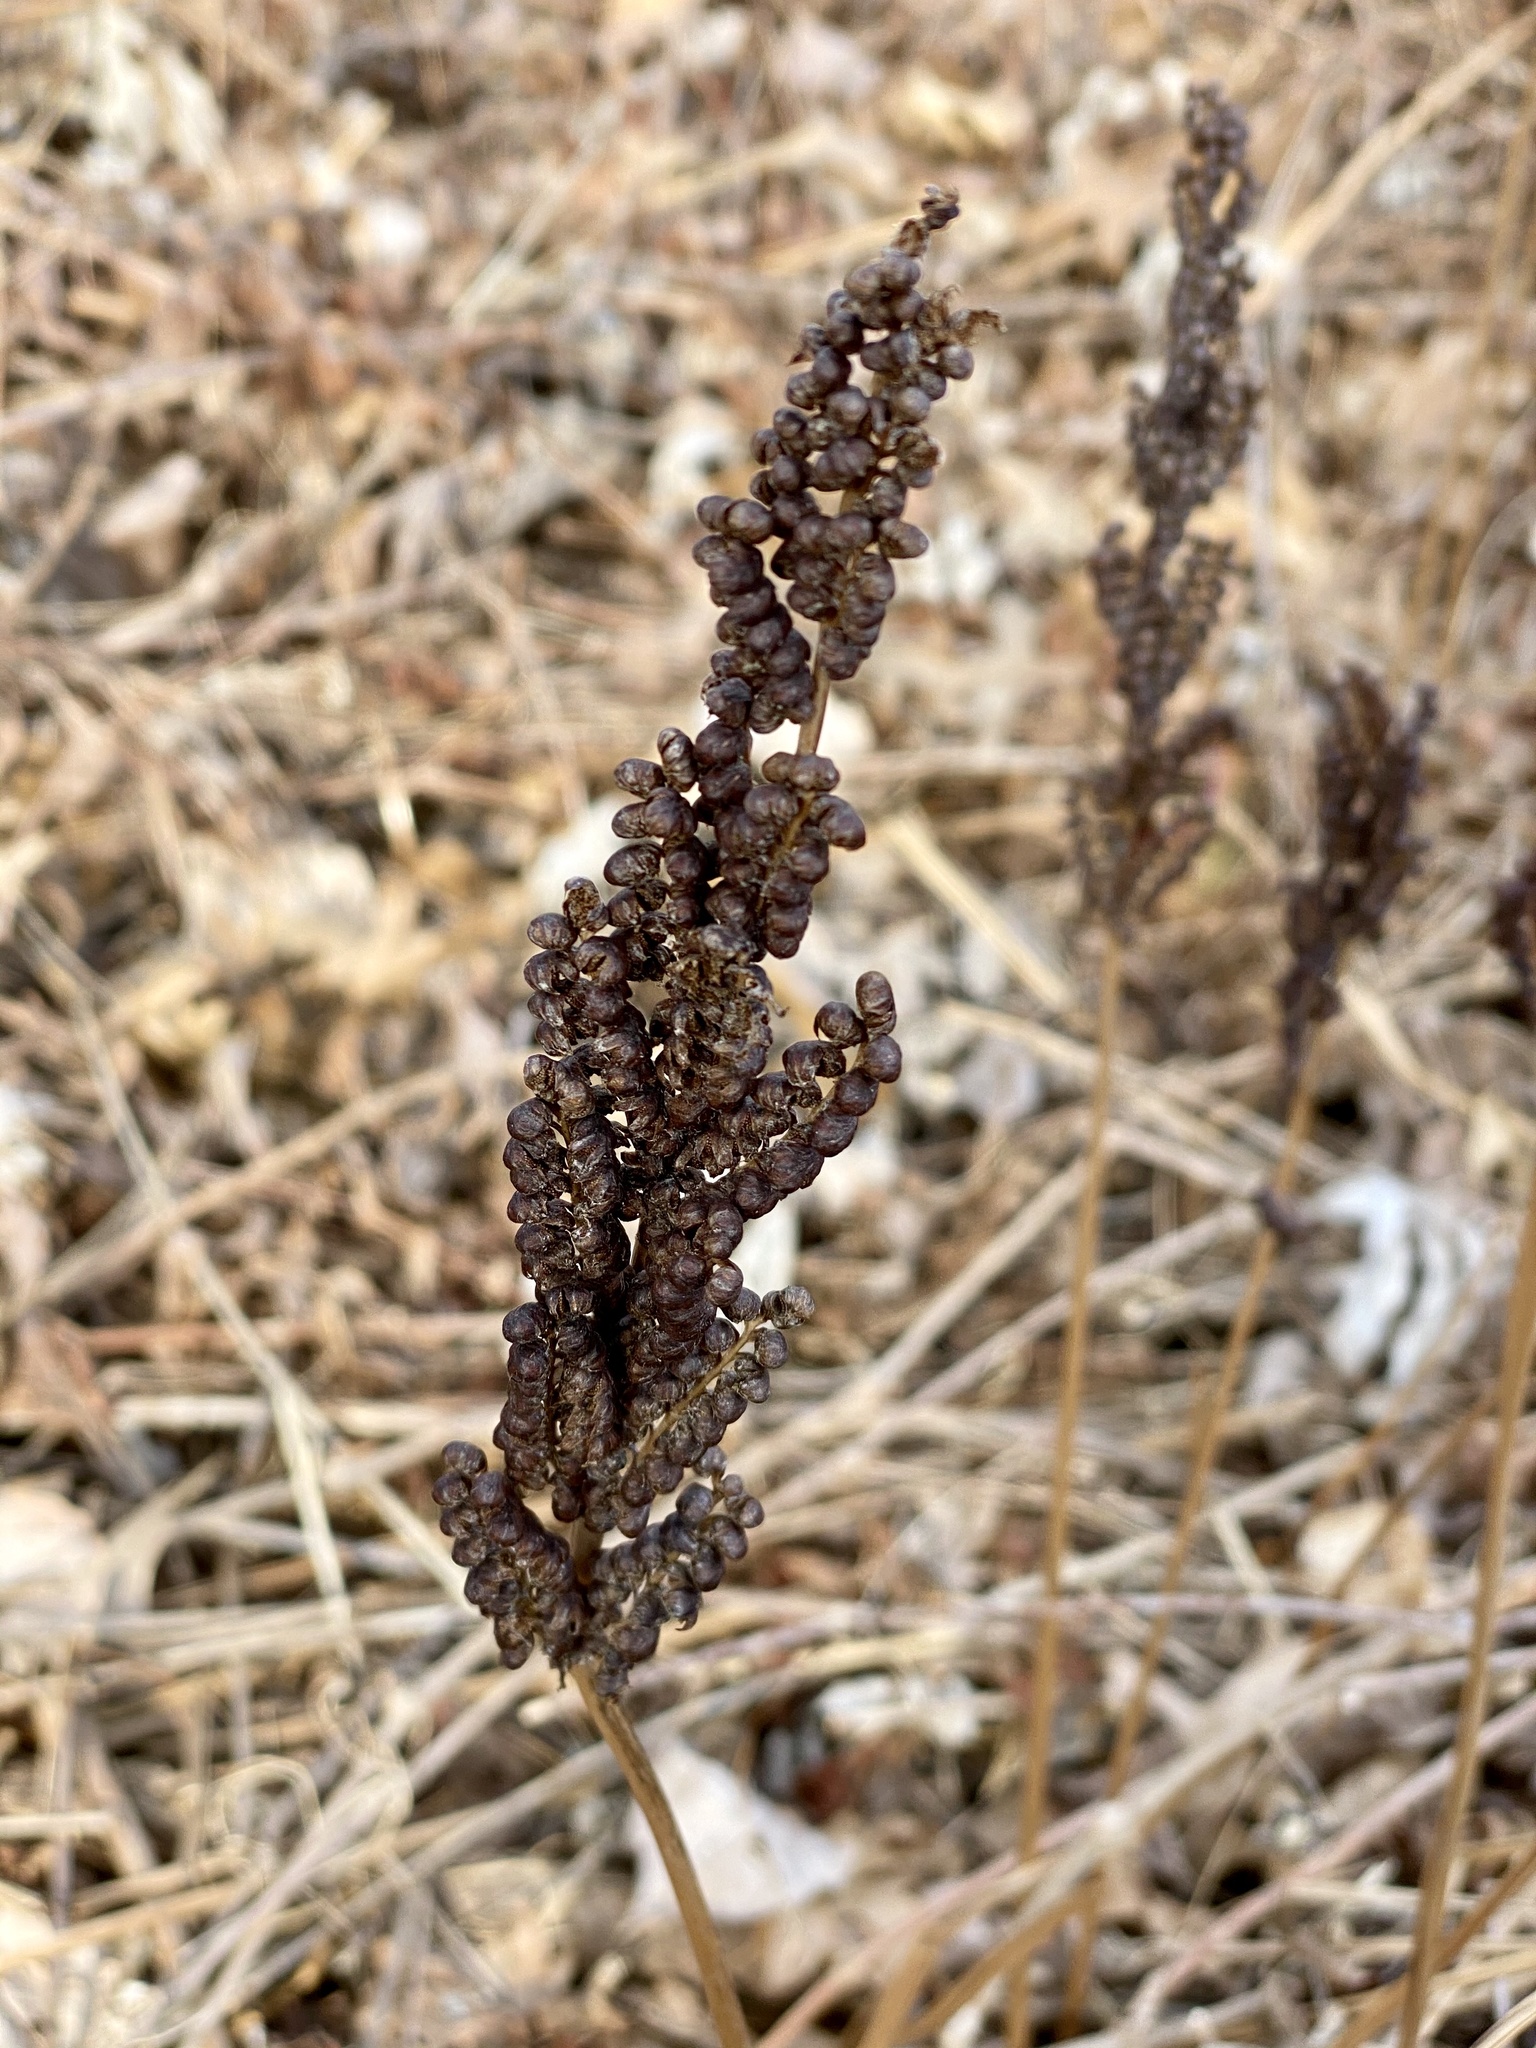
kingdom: Plantae
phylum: Tracheophyta
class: Polypodiopsida
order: Polypodiales
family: Onocleaceae
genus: Onoclea
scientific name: Onoclea sensibilis
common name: Sensitive fern
